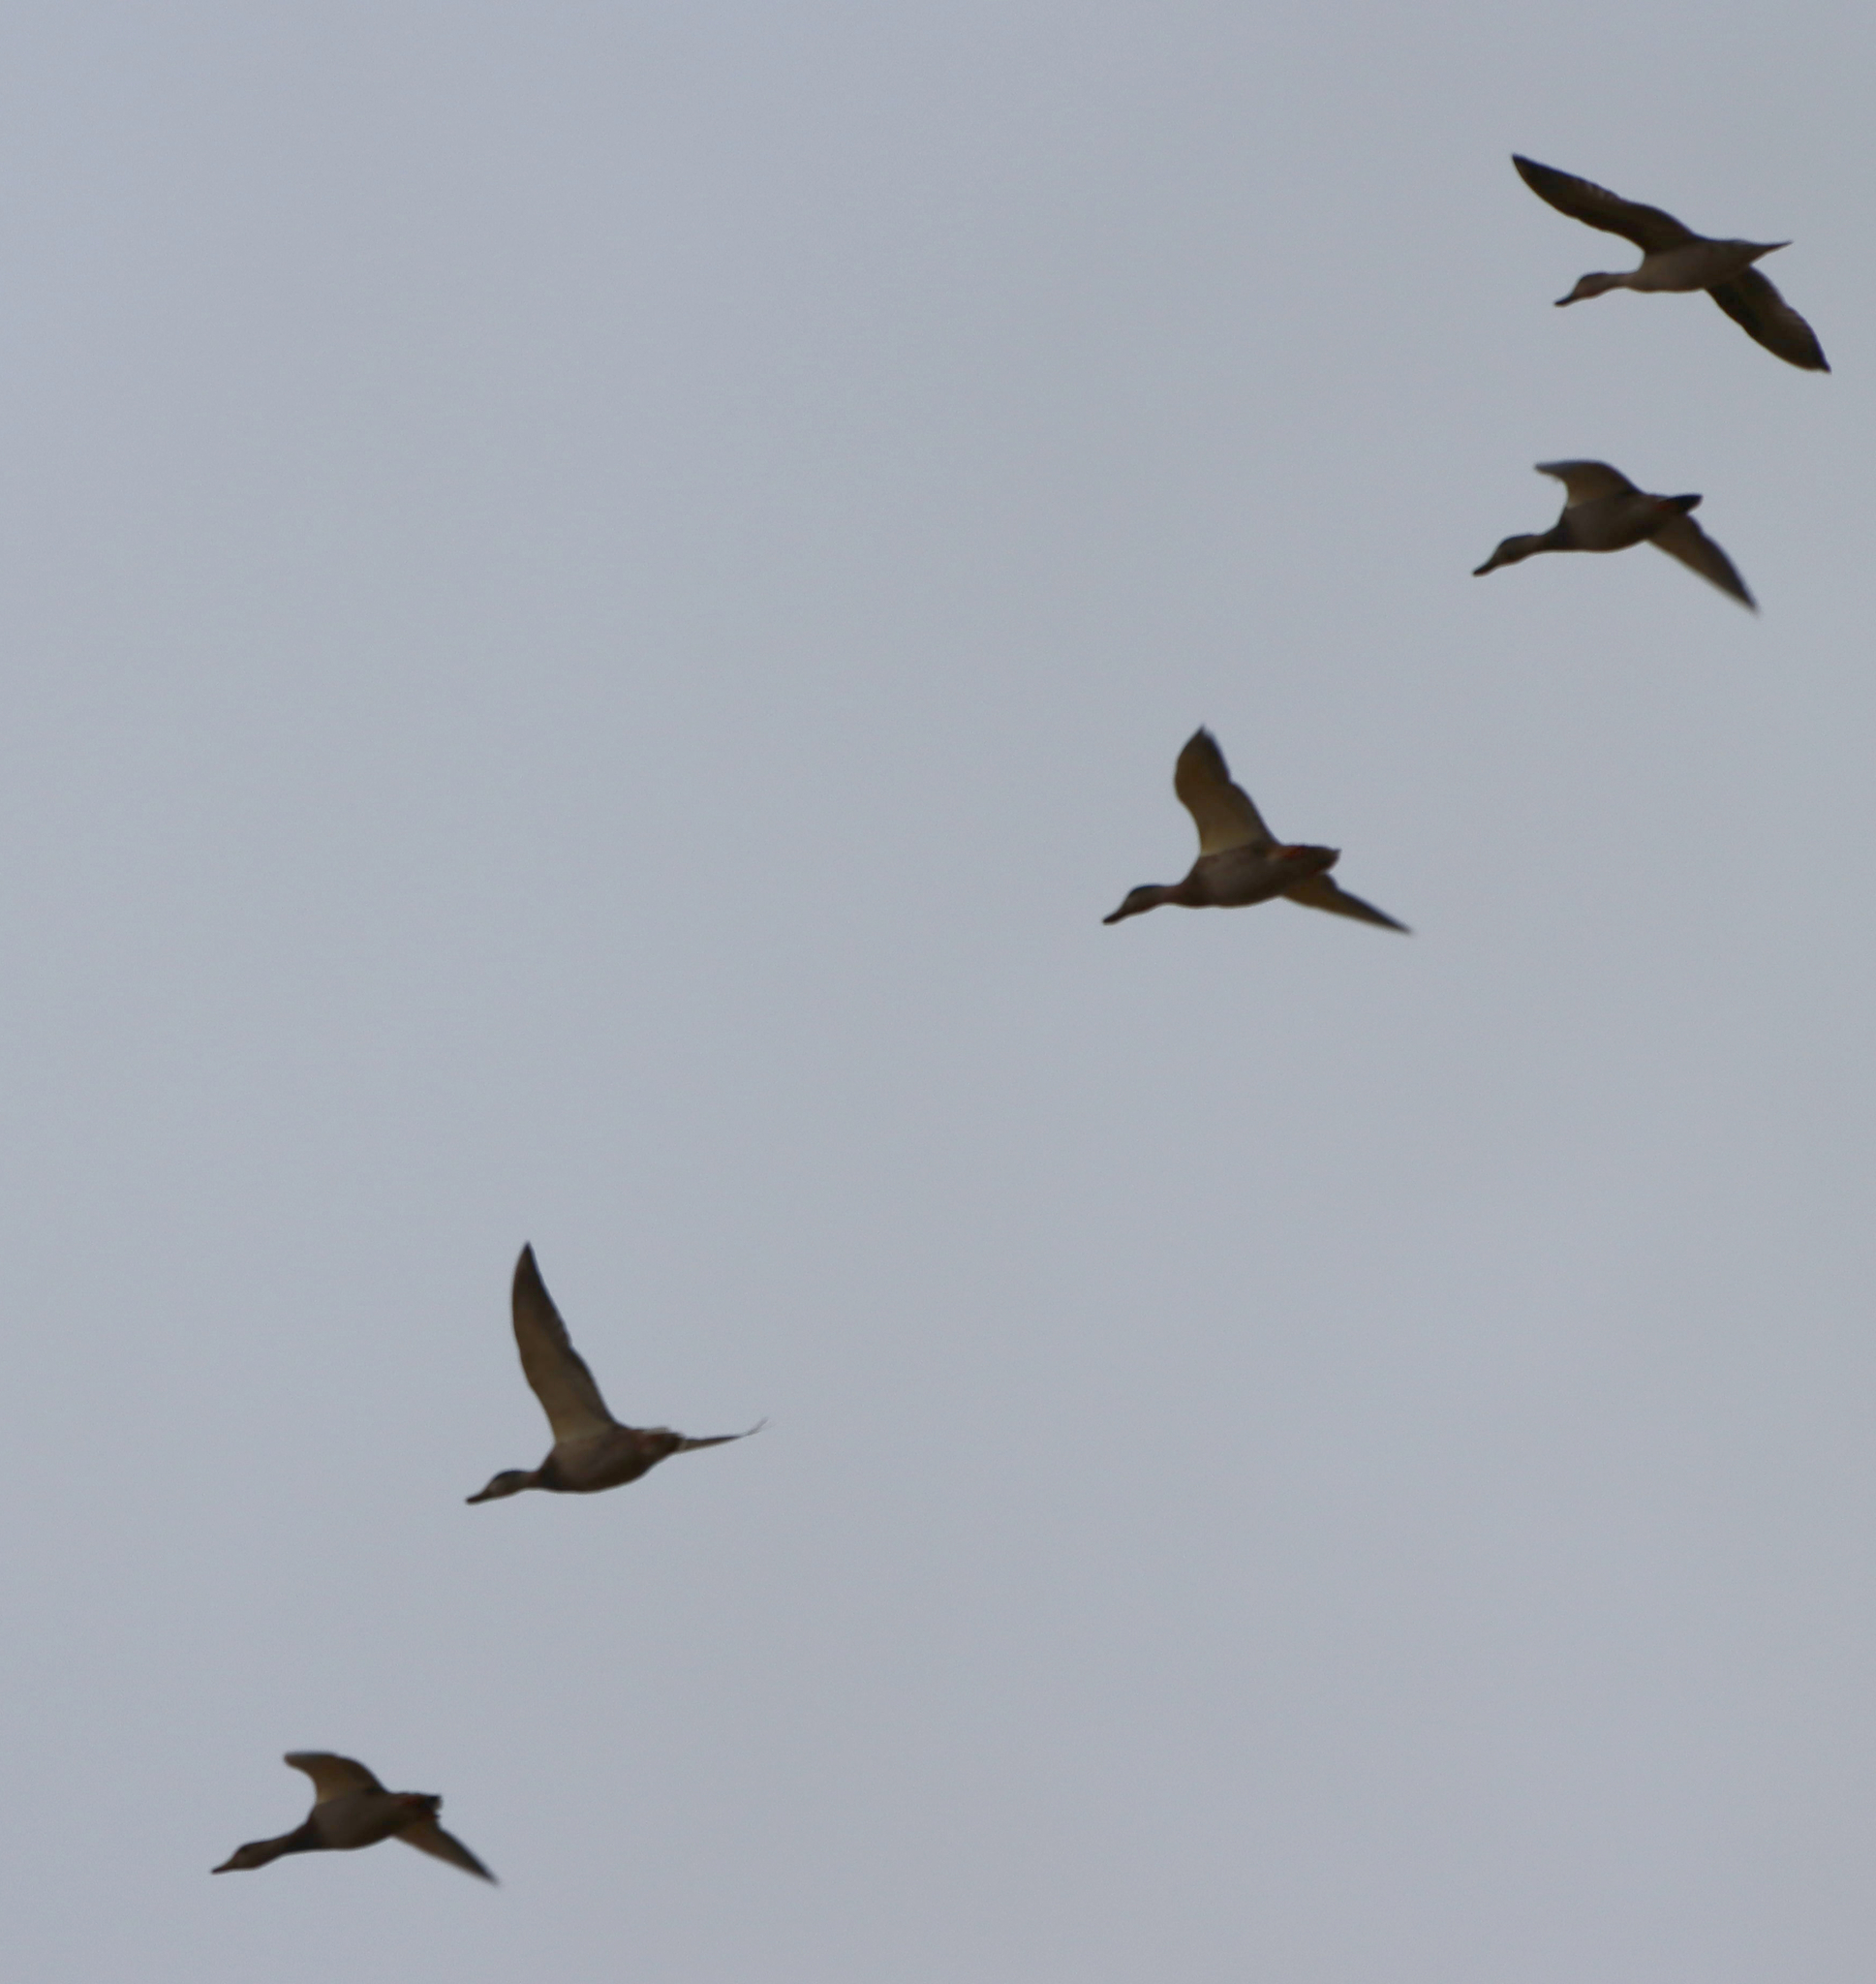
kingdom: Animalia
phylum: Chordata
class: Aves
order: Anseriformes
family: Anatidae
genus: Anas
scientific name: Anas platyrhynchos
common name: Mallard
